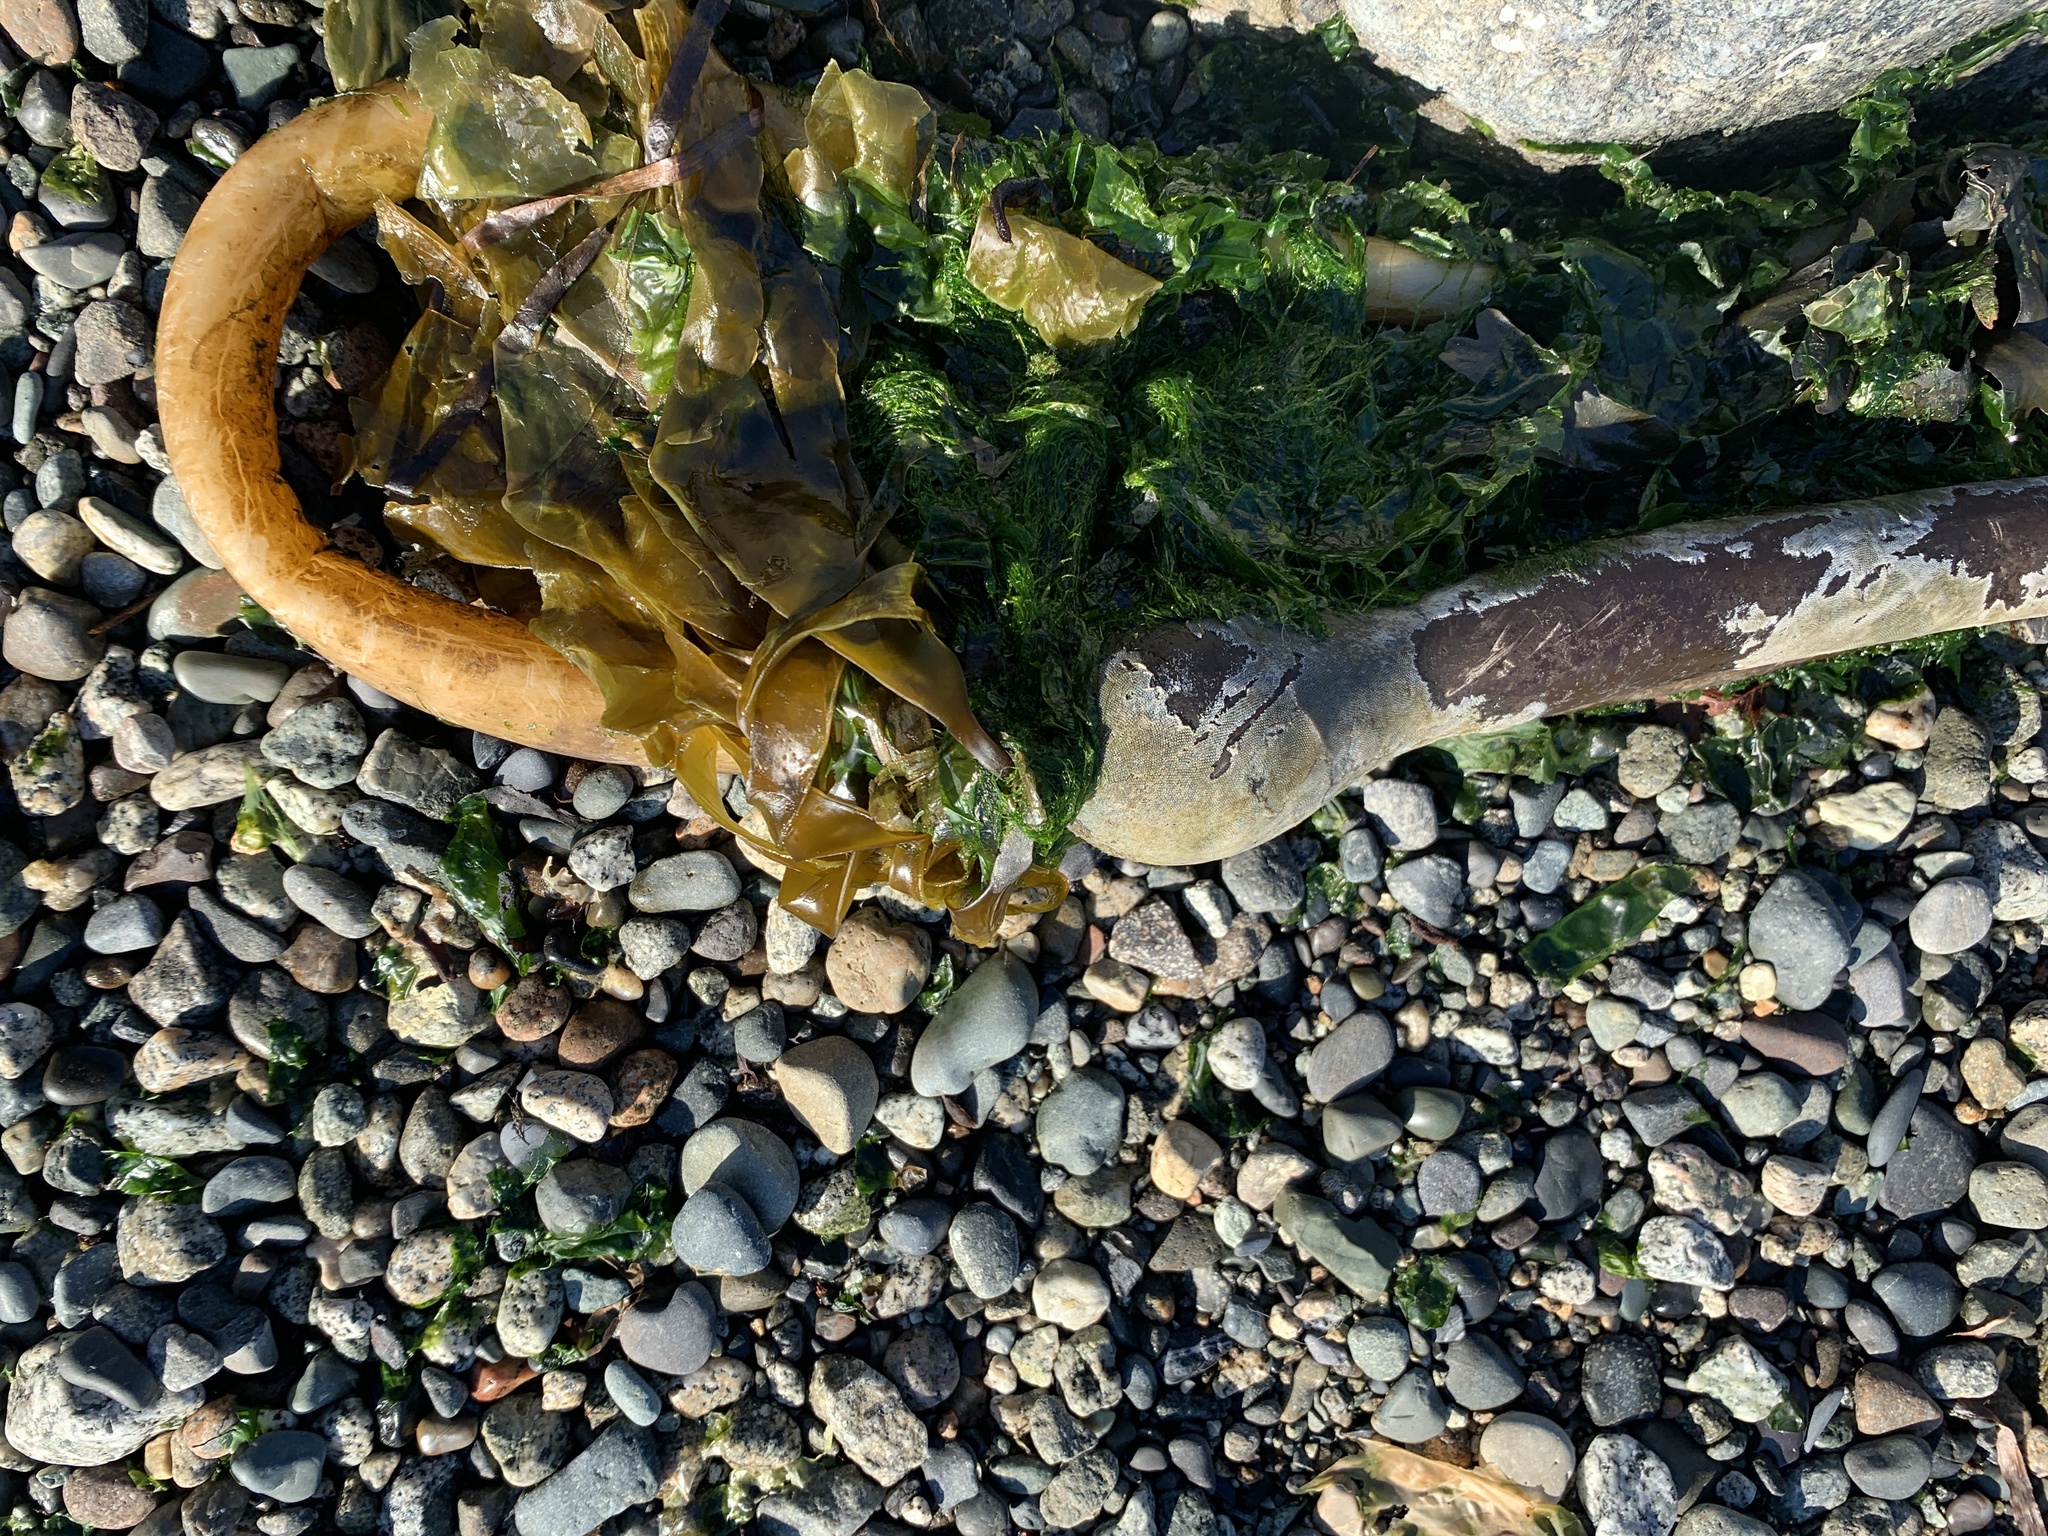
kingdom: Chromista
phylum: Ochrophyta
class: Phaeophyceae
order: Laminariales
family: Laminariaceae
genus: Nereocystis
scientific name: Nereocystis luetkeana
